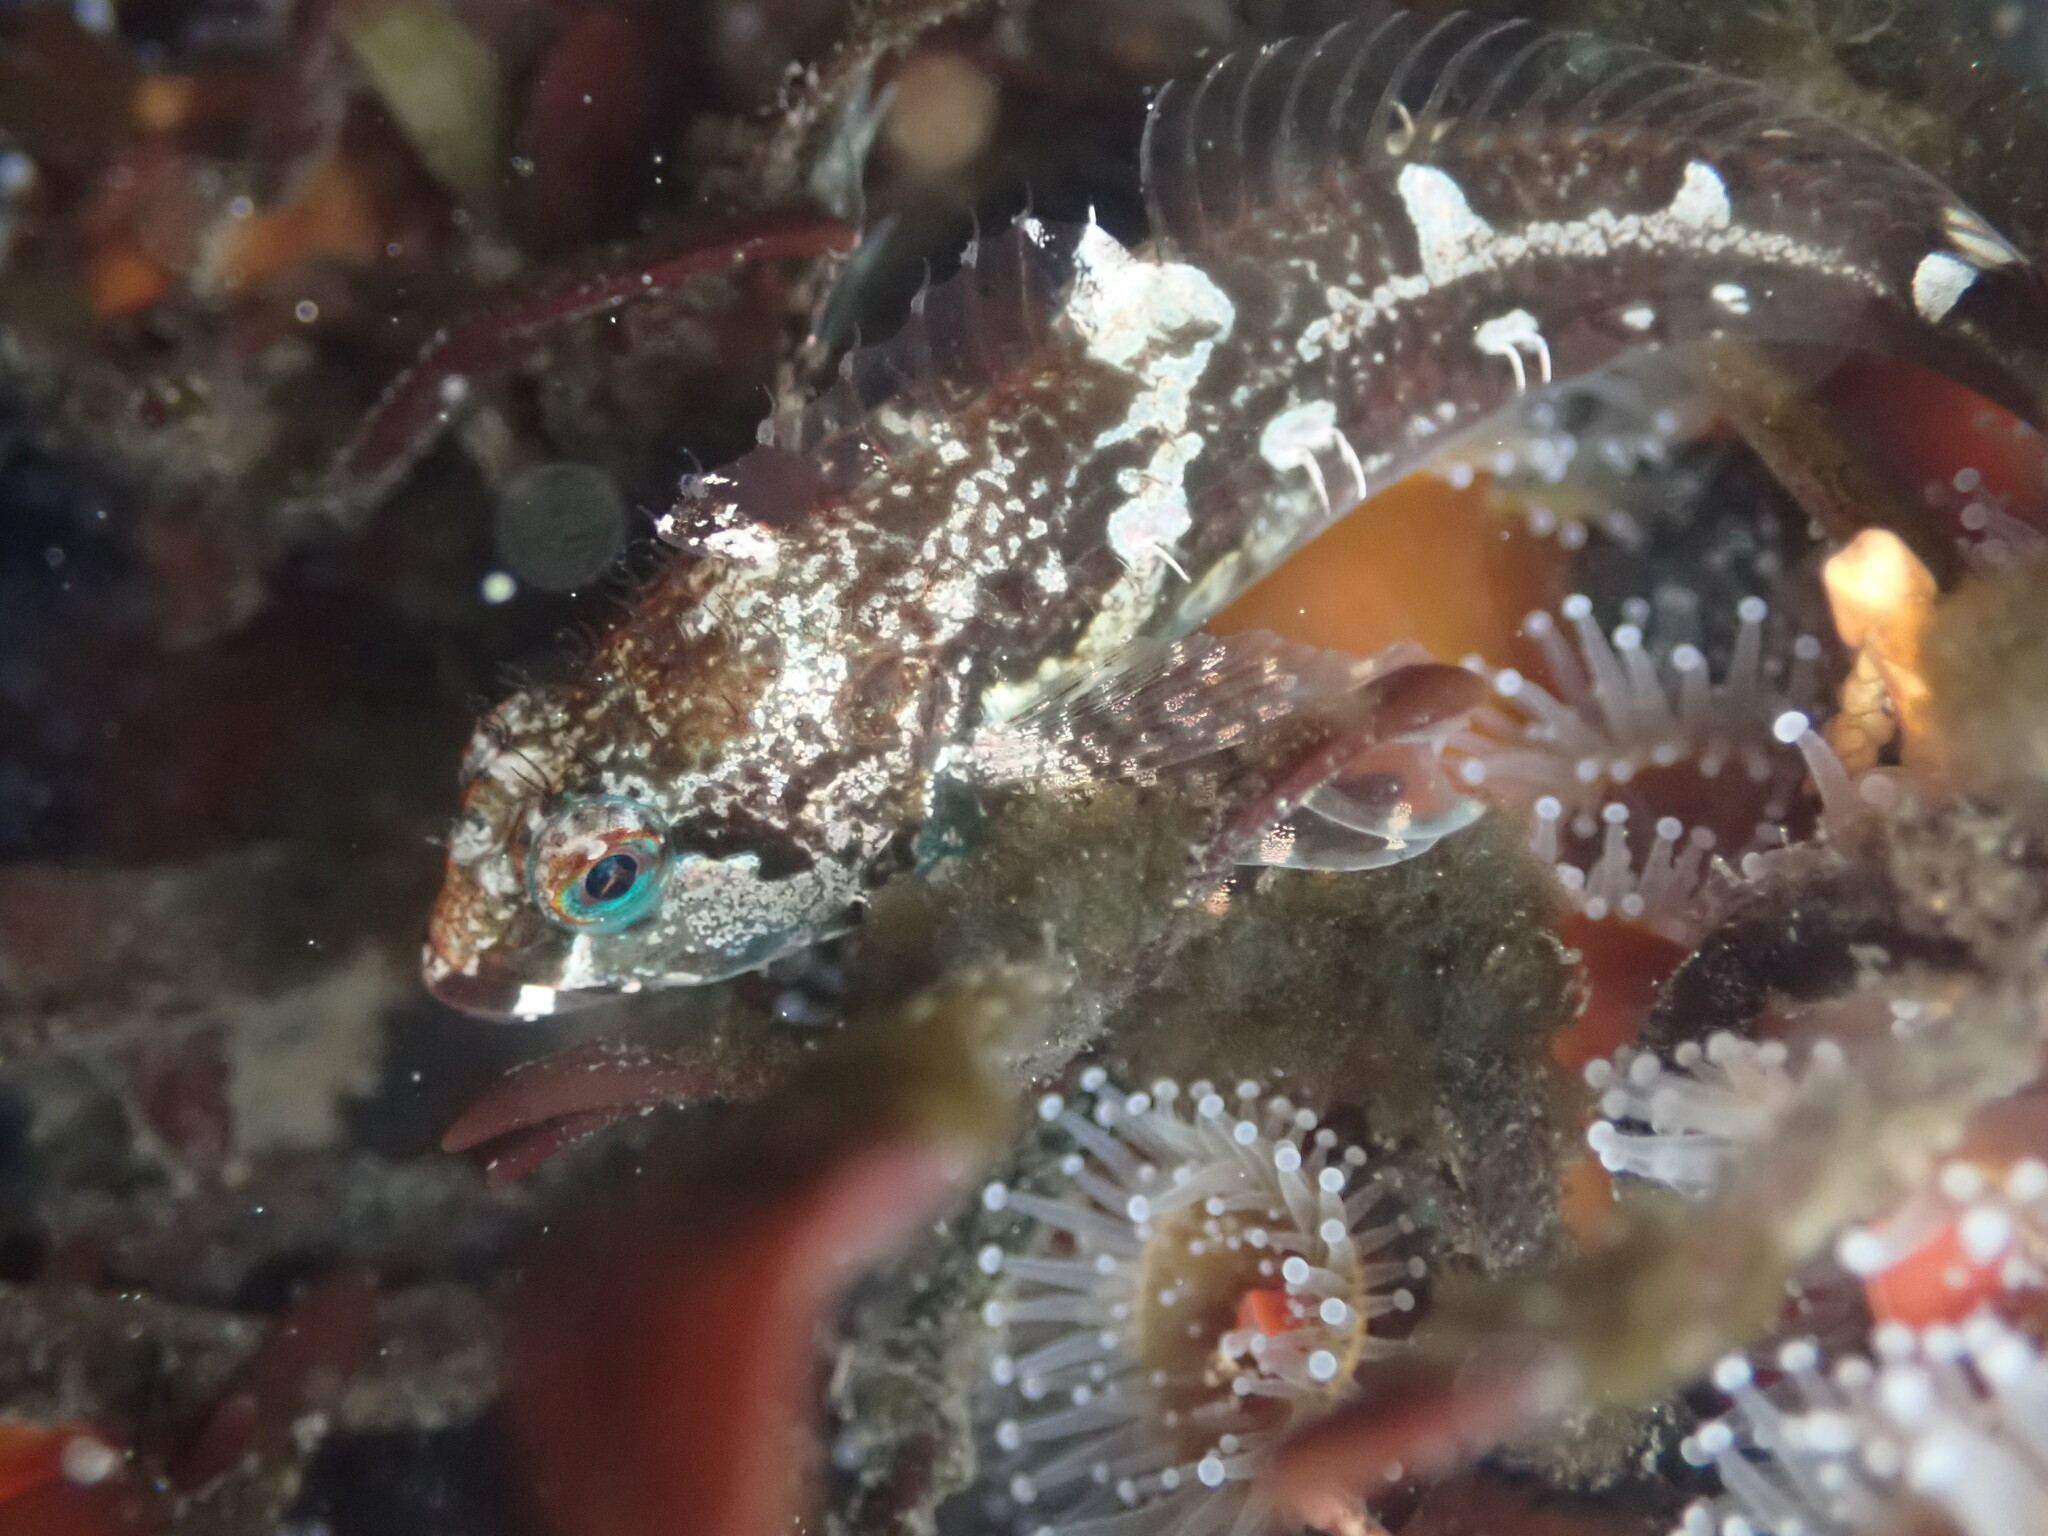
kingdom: Animalia
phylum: Chordata
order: Scorpaeniformes
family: Cottidae
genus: Oligocottus
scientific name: Oligocottus snyderi
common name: Fluffy sculpin
